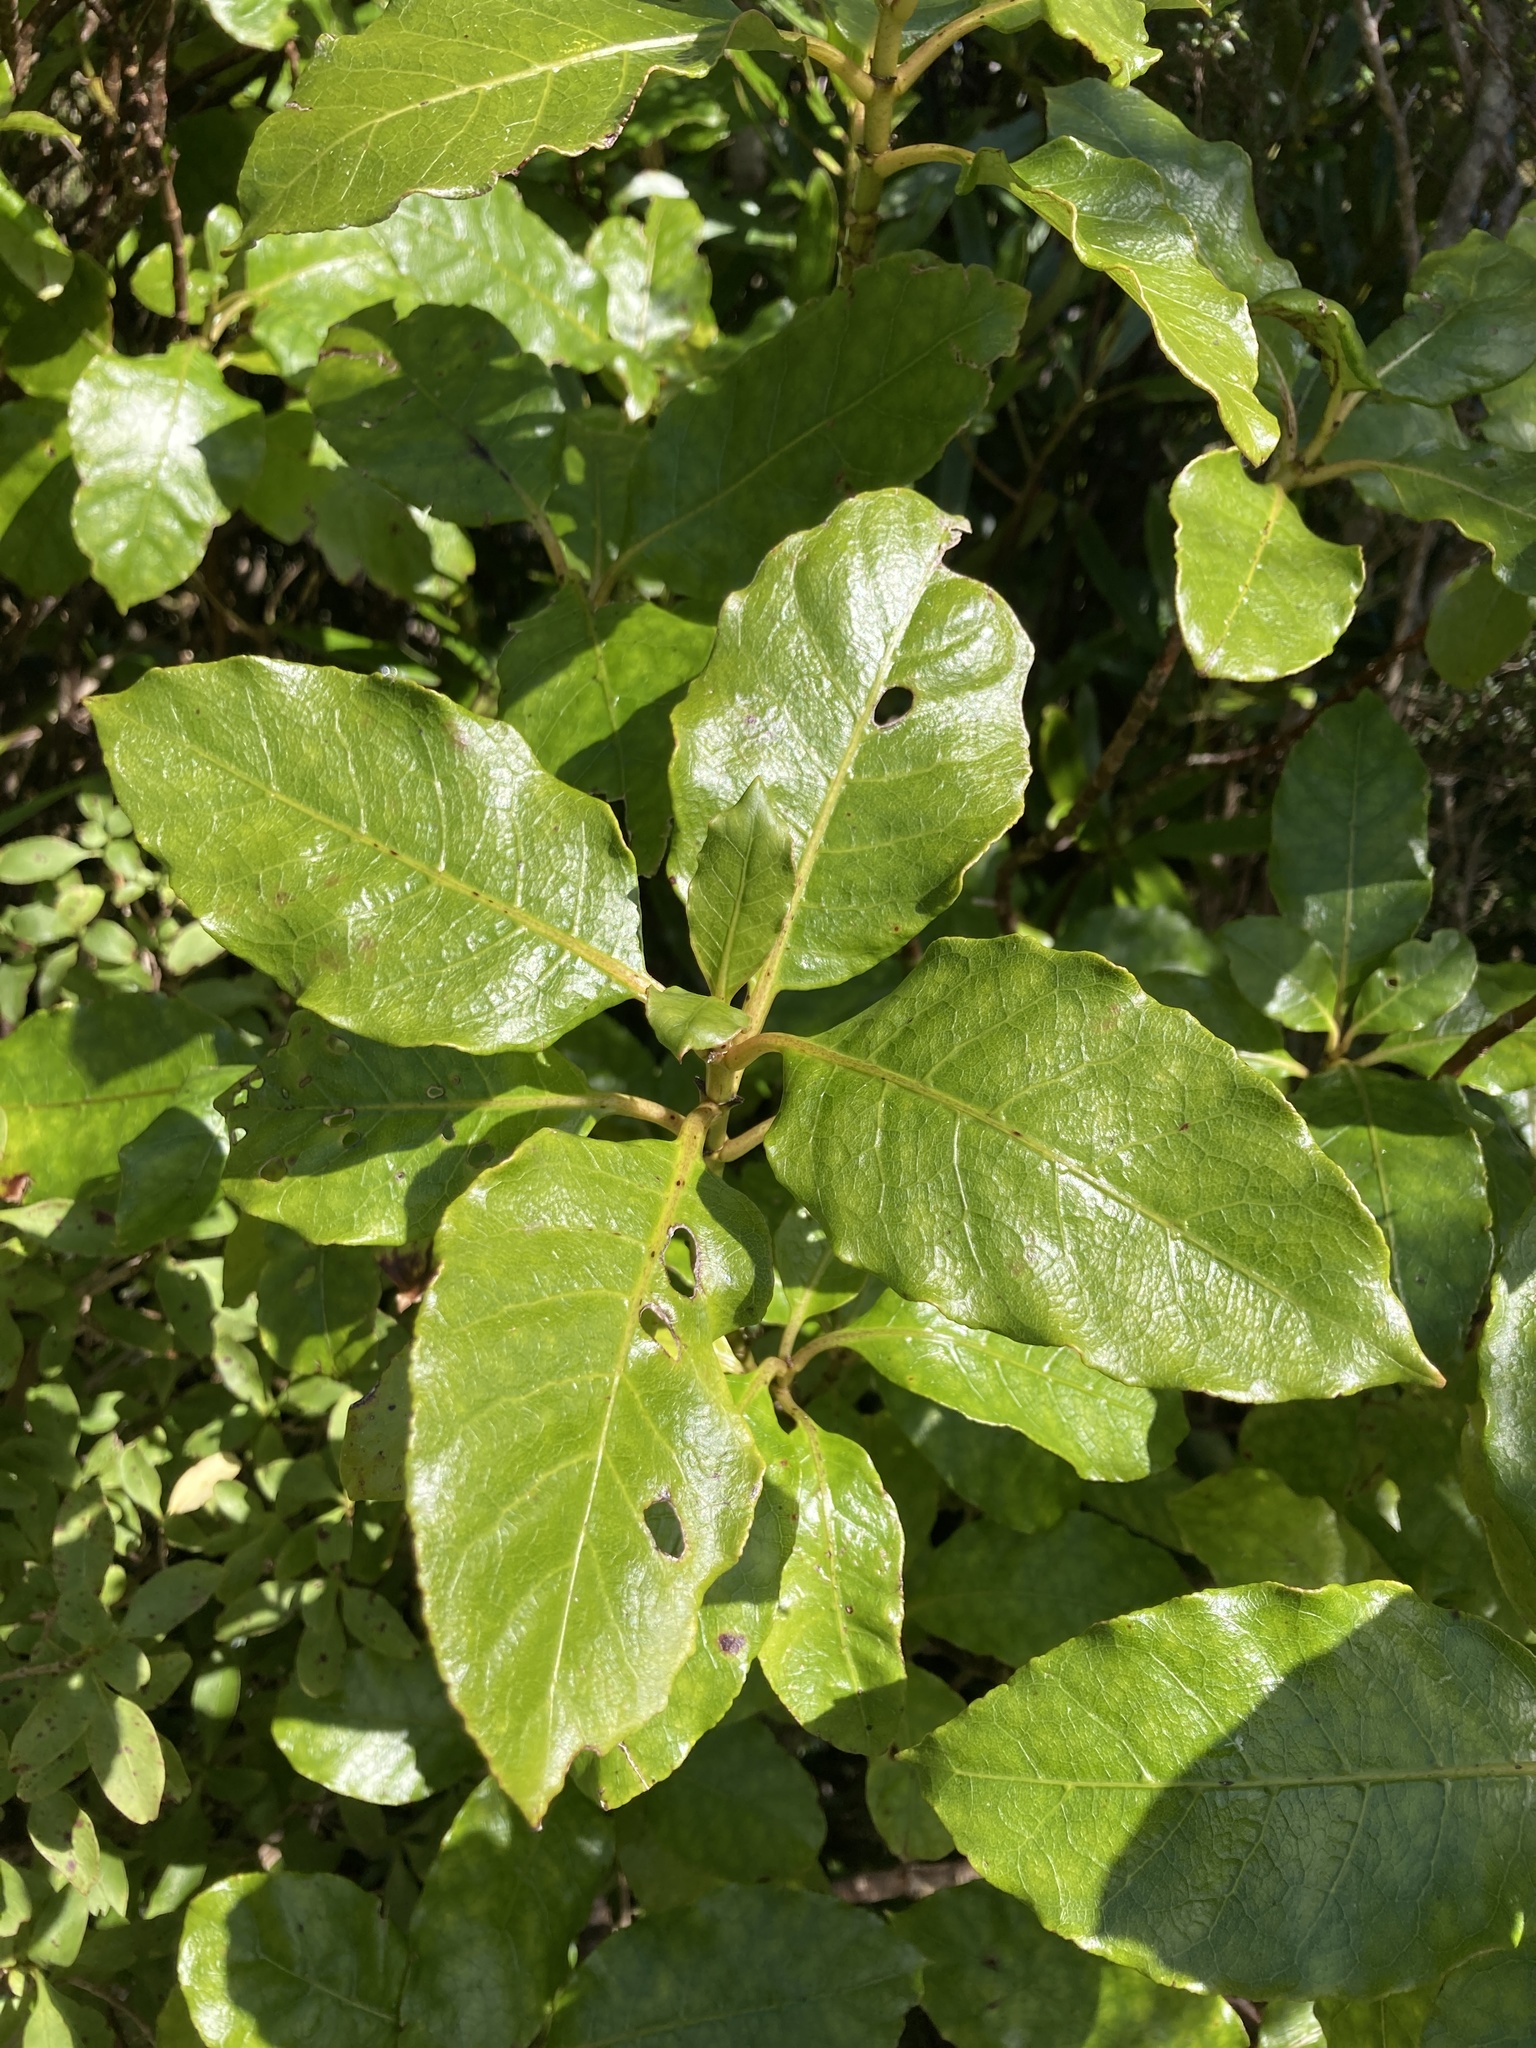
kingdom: Plantae
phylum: Tracheophyta
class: Magnoliopsida
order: Gentianales
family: Rubiaceae
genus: Coprosma
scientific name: Coprosma autumnalis
